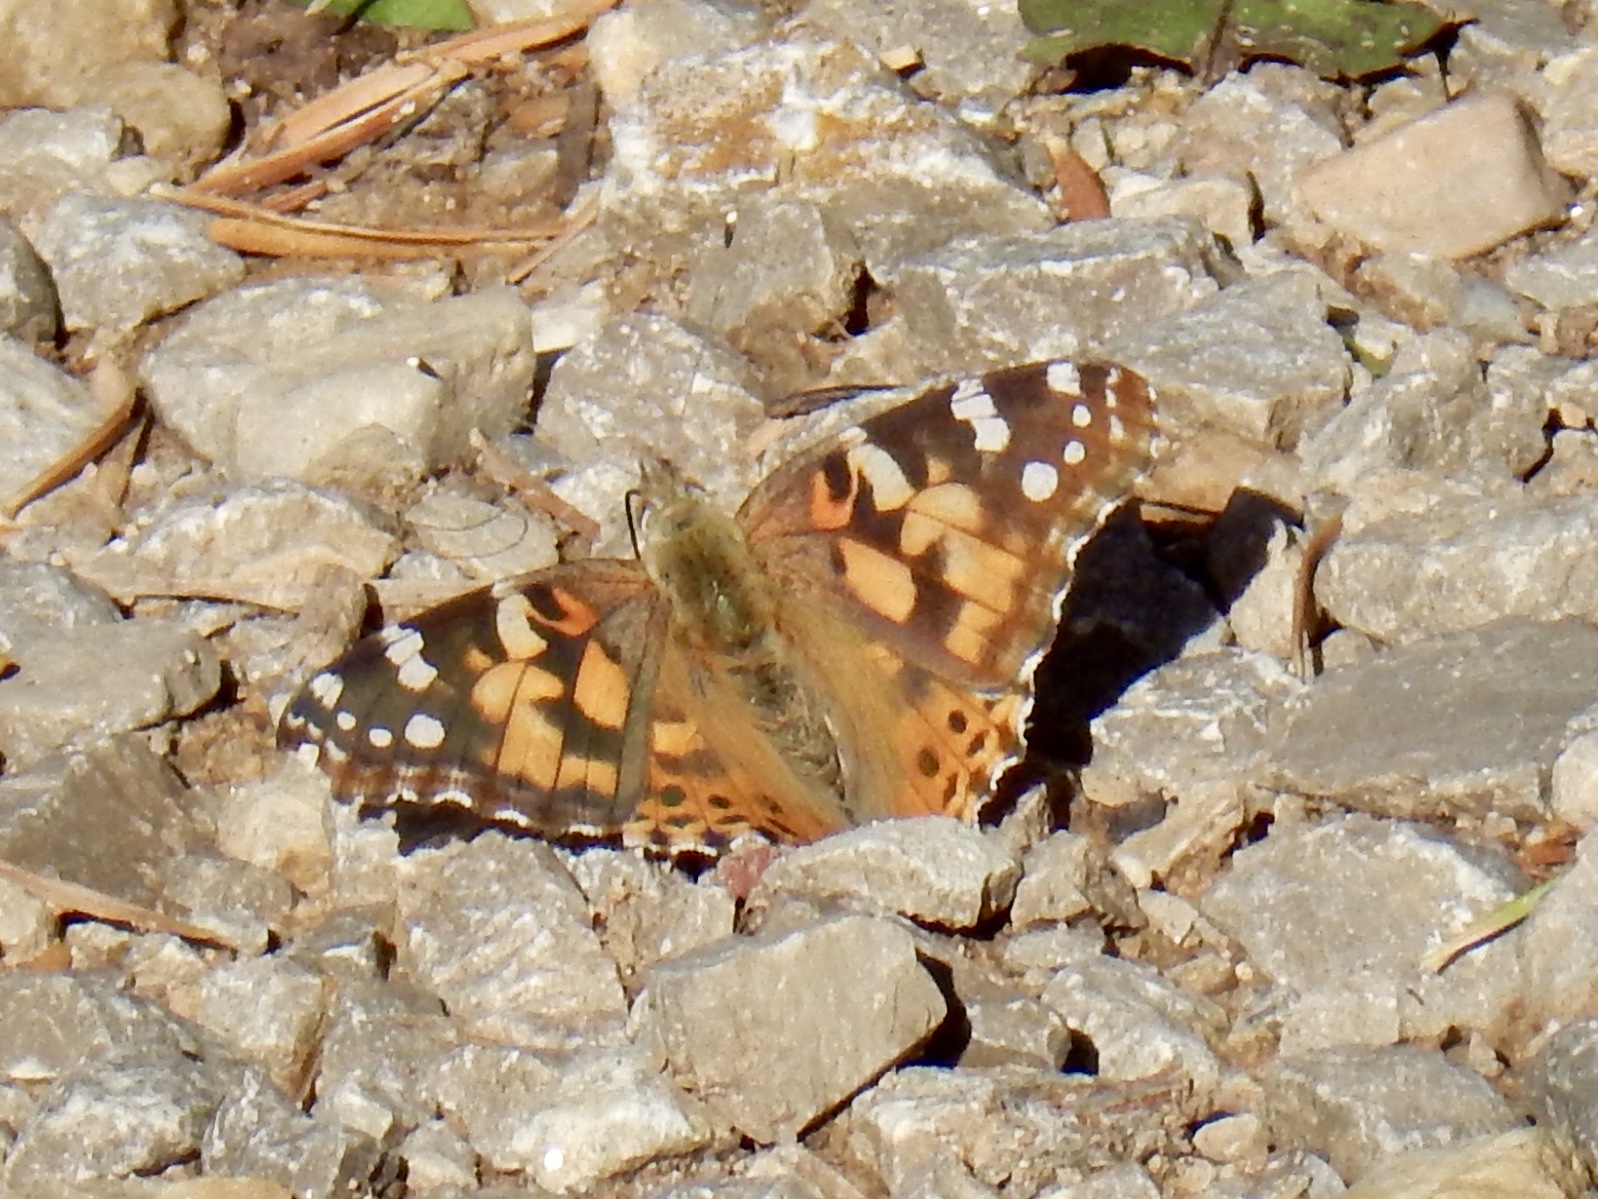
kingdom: Animalia
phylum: Arthropoda
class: Insecta
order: Lepidoptera
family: Nymphalidae
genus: Vanessa
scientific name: Vanessa cardui
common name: Painted lady
